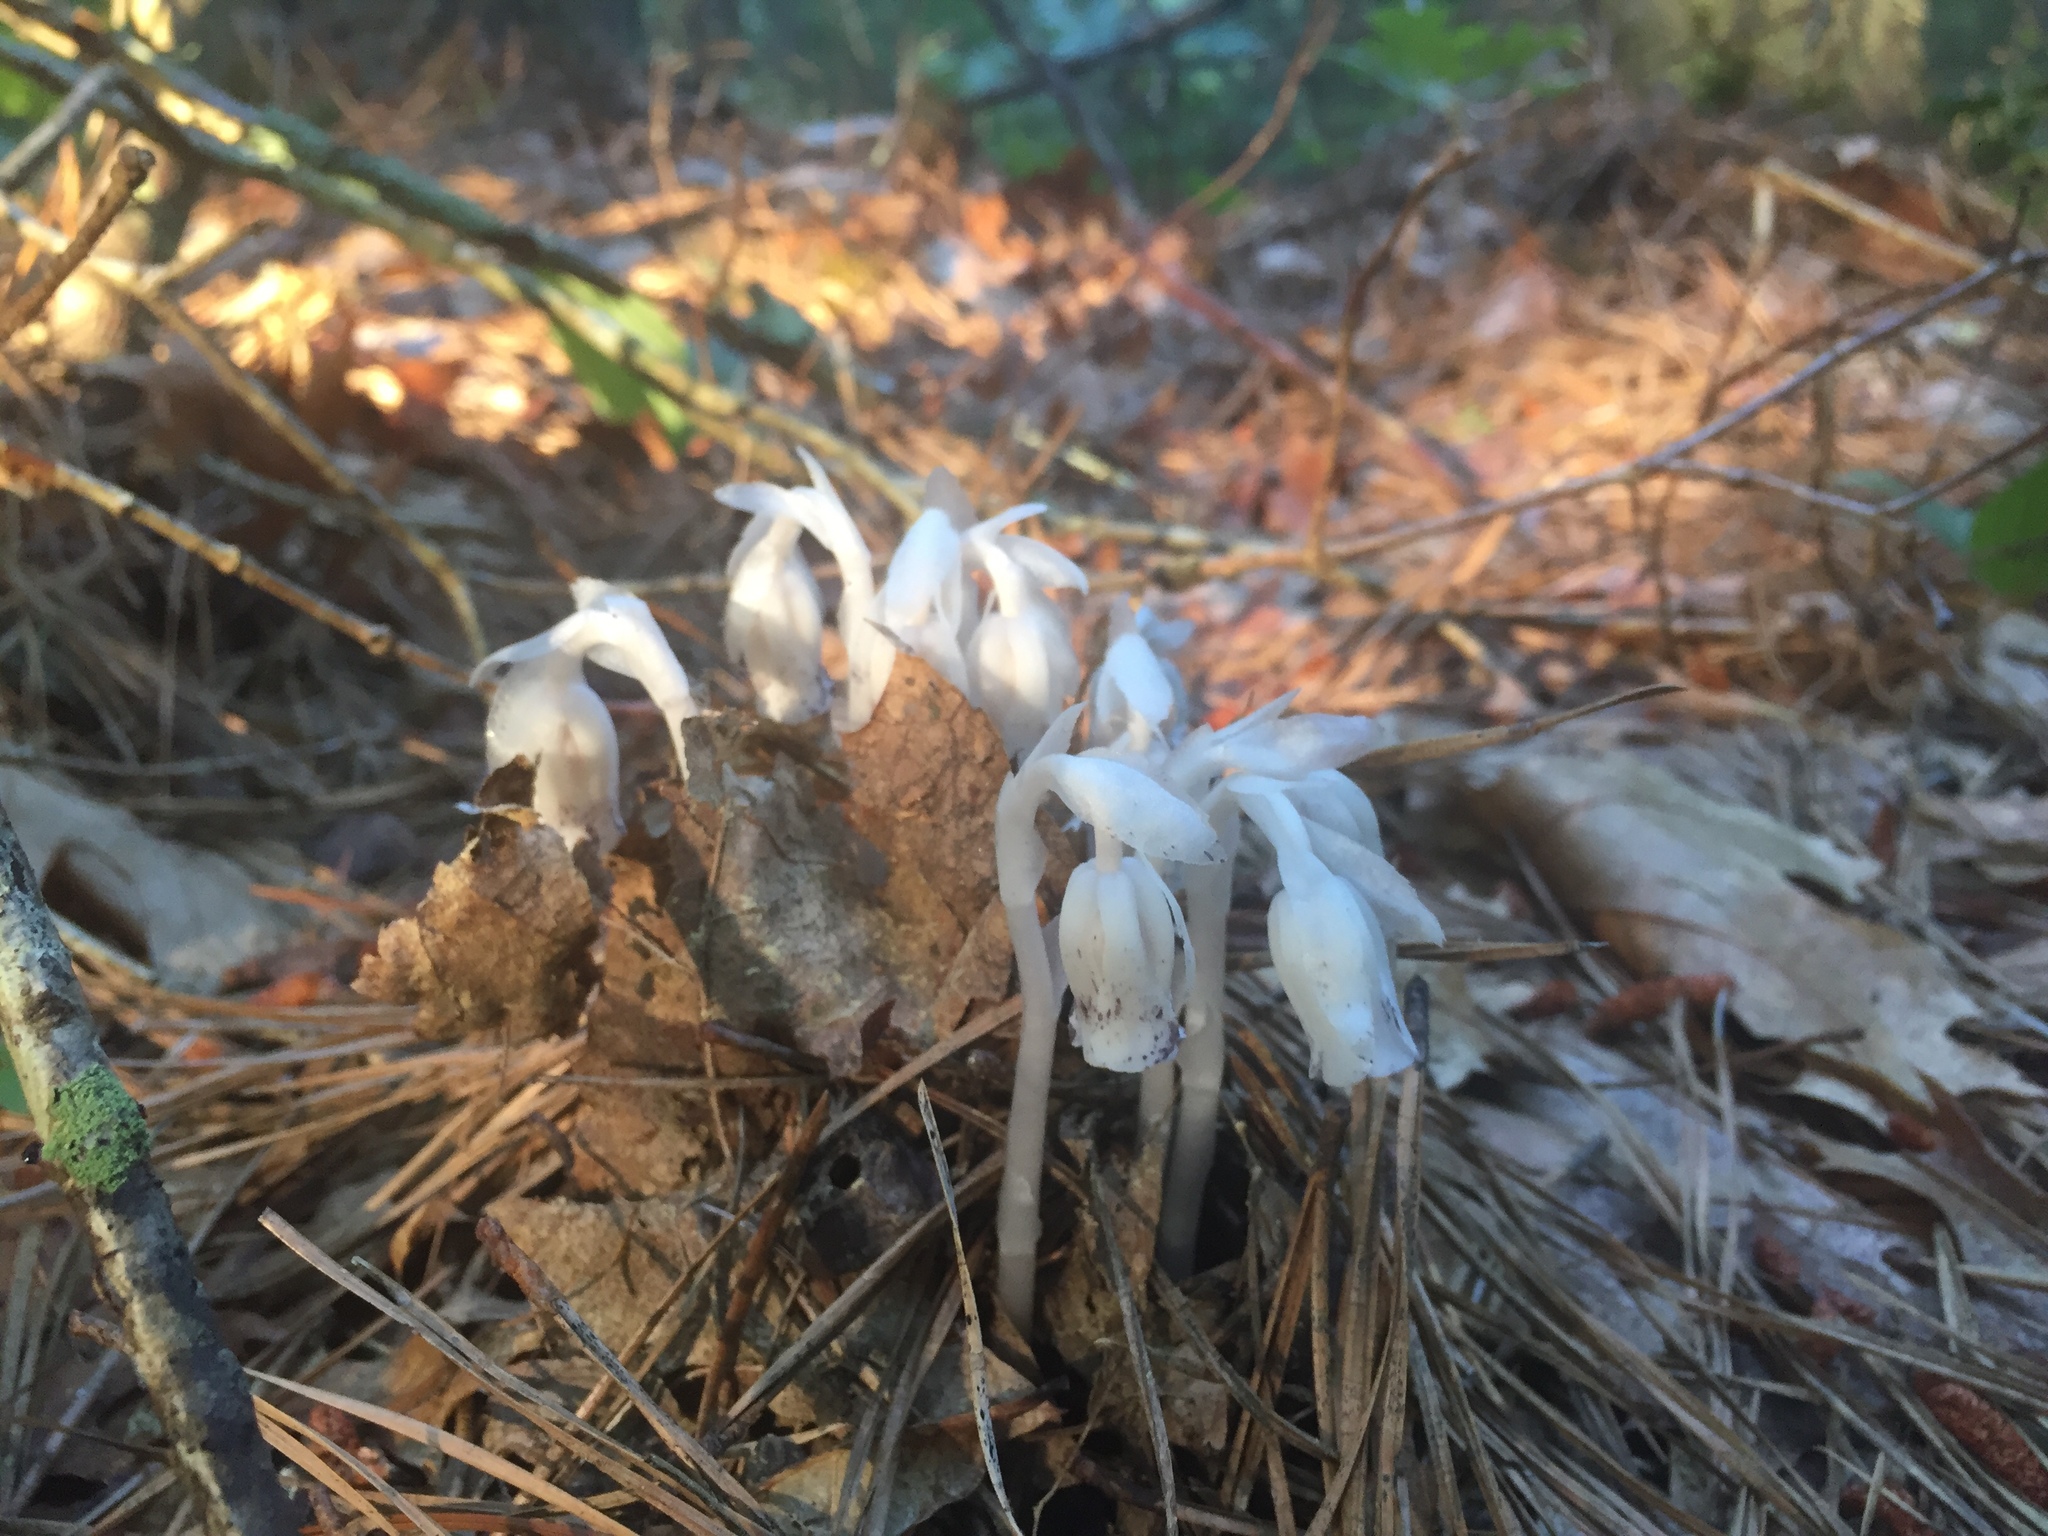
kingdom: Plantae
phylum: Tracheophyta
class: Magnoliopsida
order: Ericales
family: Ericaceae
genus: Monotropa
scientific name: Monotropa uniflora
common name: Convulsion root
